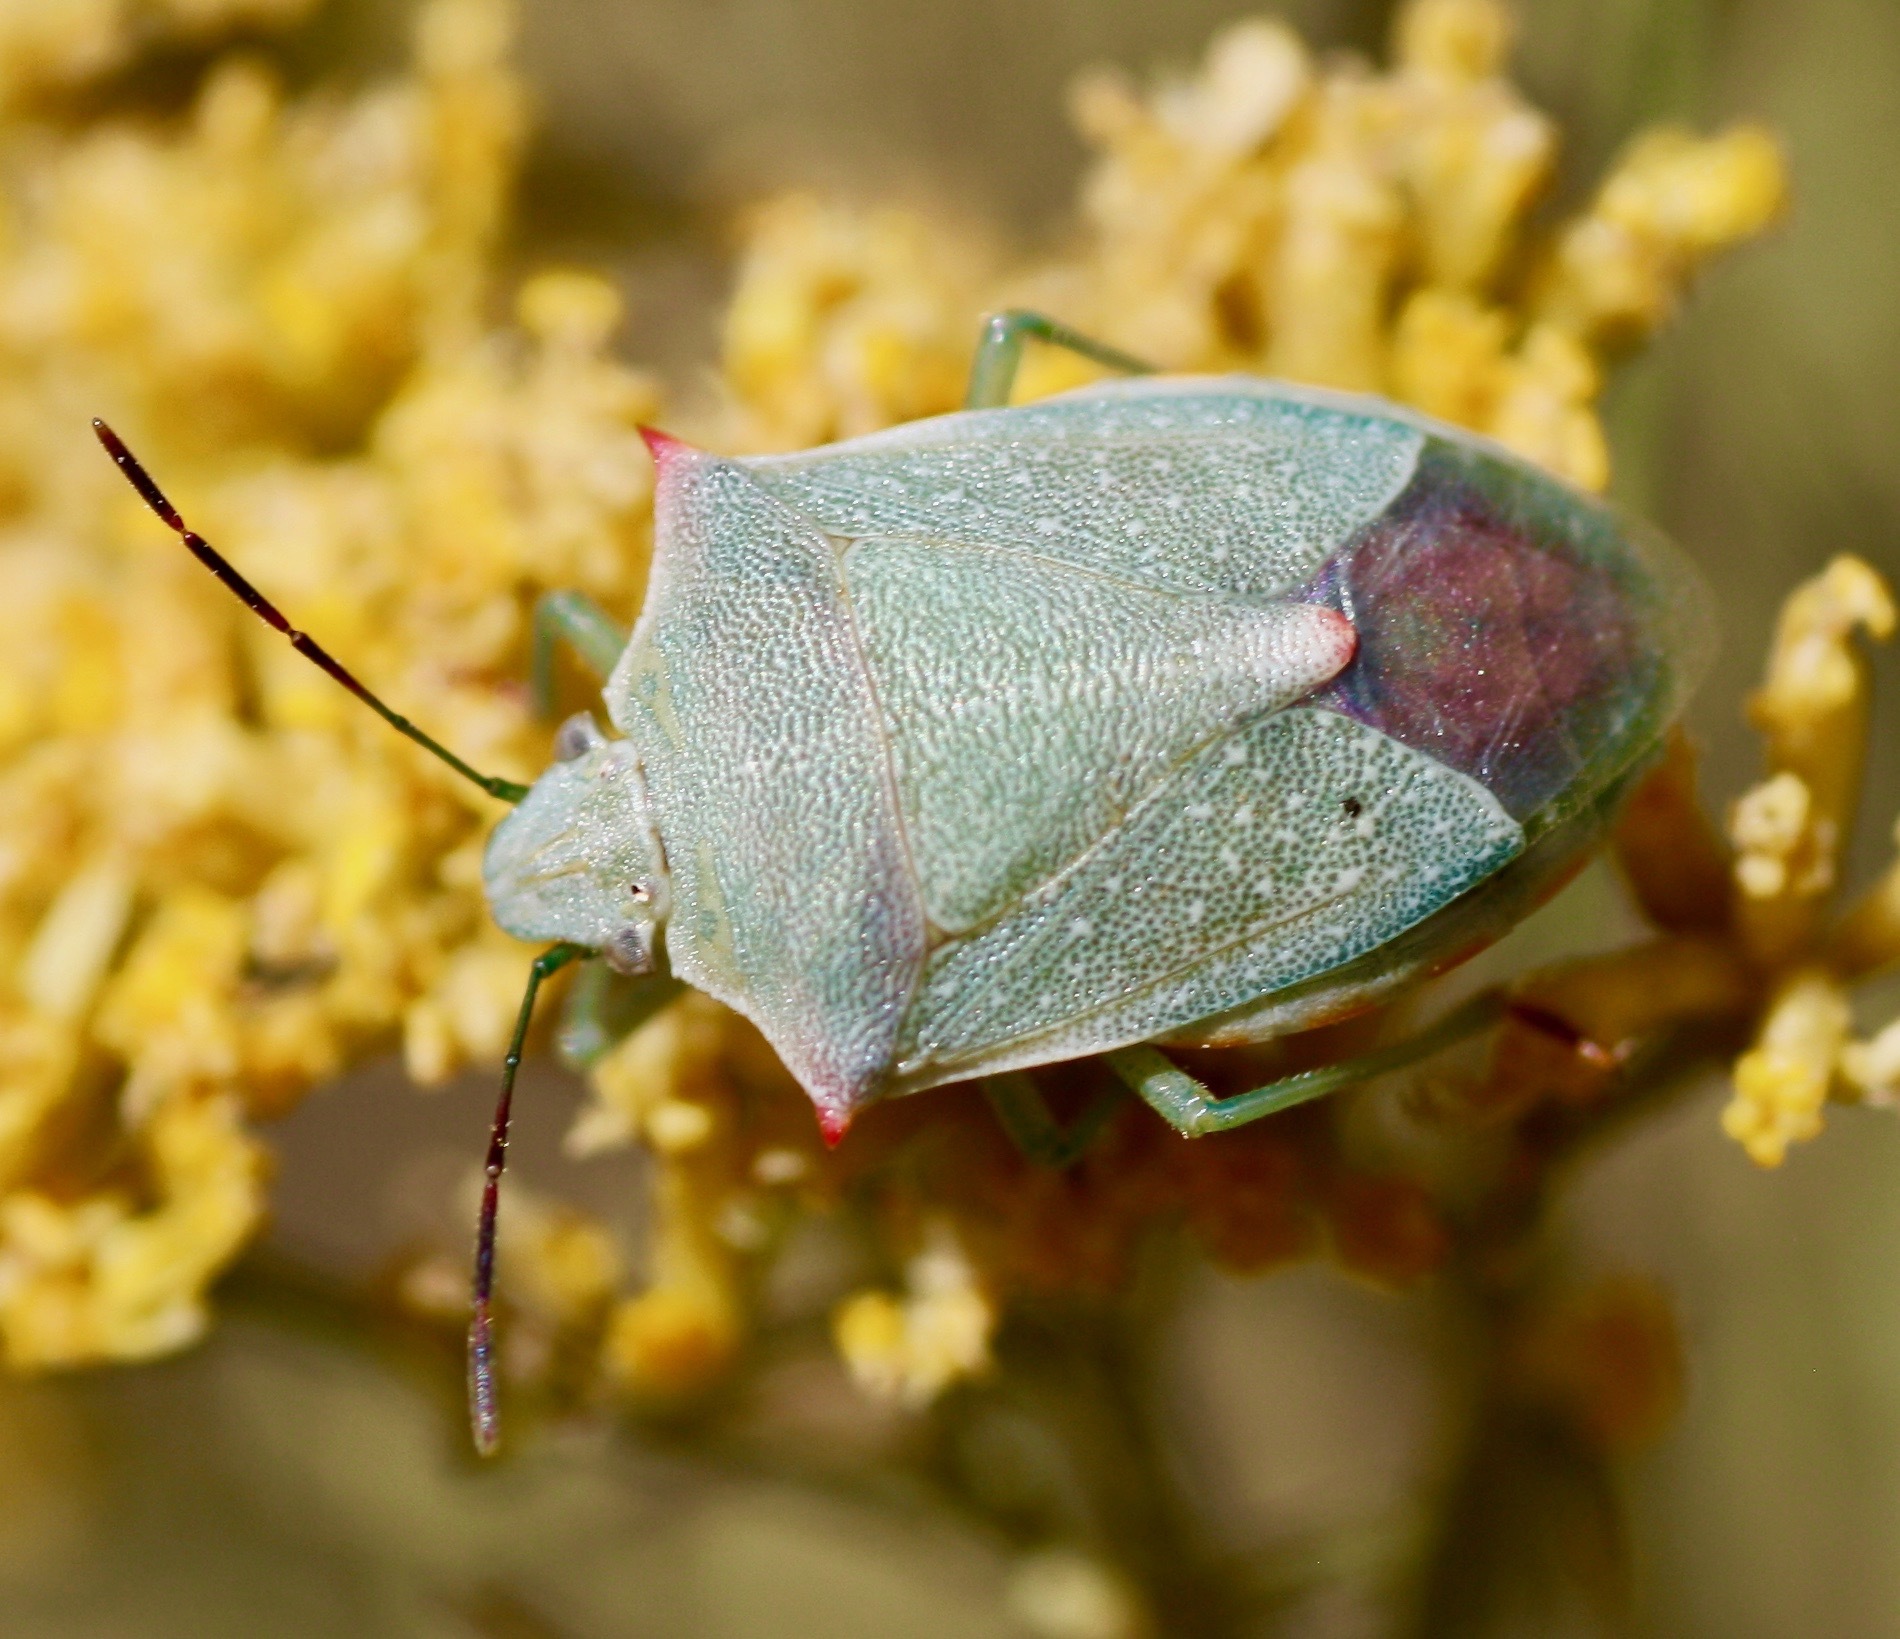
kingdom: Animalia
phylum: Arthropoda
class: Insecta
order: Hemiptera
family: Pentatomidae
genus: Thyanta
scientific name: Thyanta accerra
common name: Stink bug
